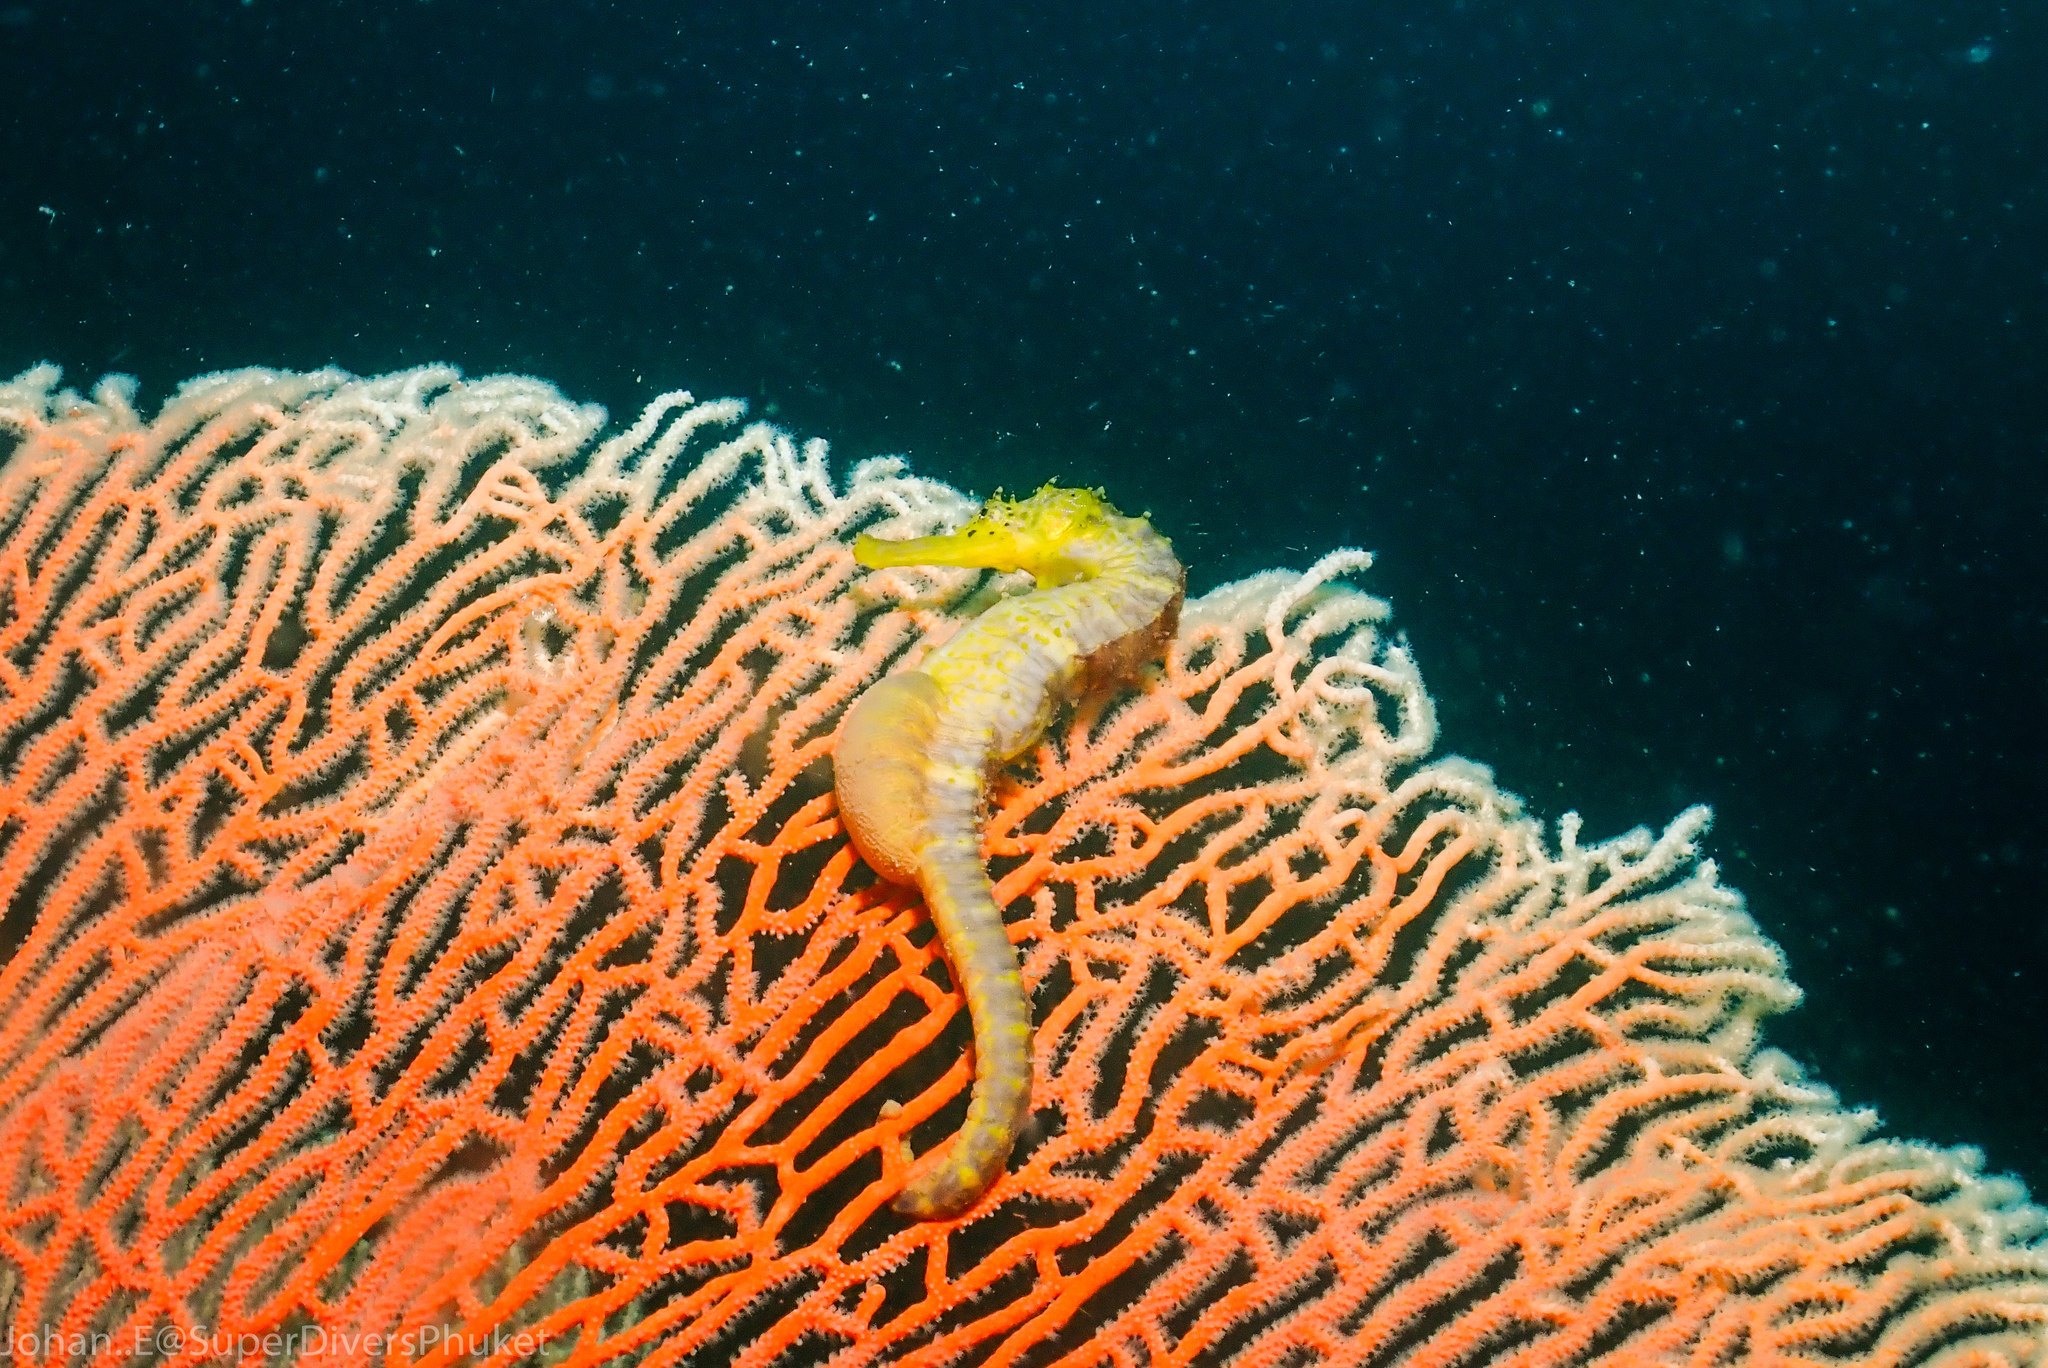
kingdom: Animalia
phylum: Chordata
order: Syngnathiformes
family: Syngnathidae
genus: Hippocampus
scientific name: Hippocampus comes
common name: Tiger tail seahorse
